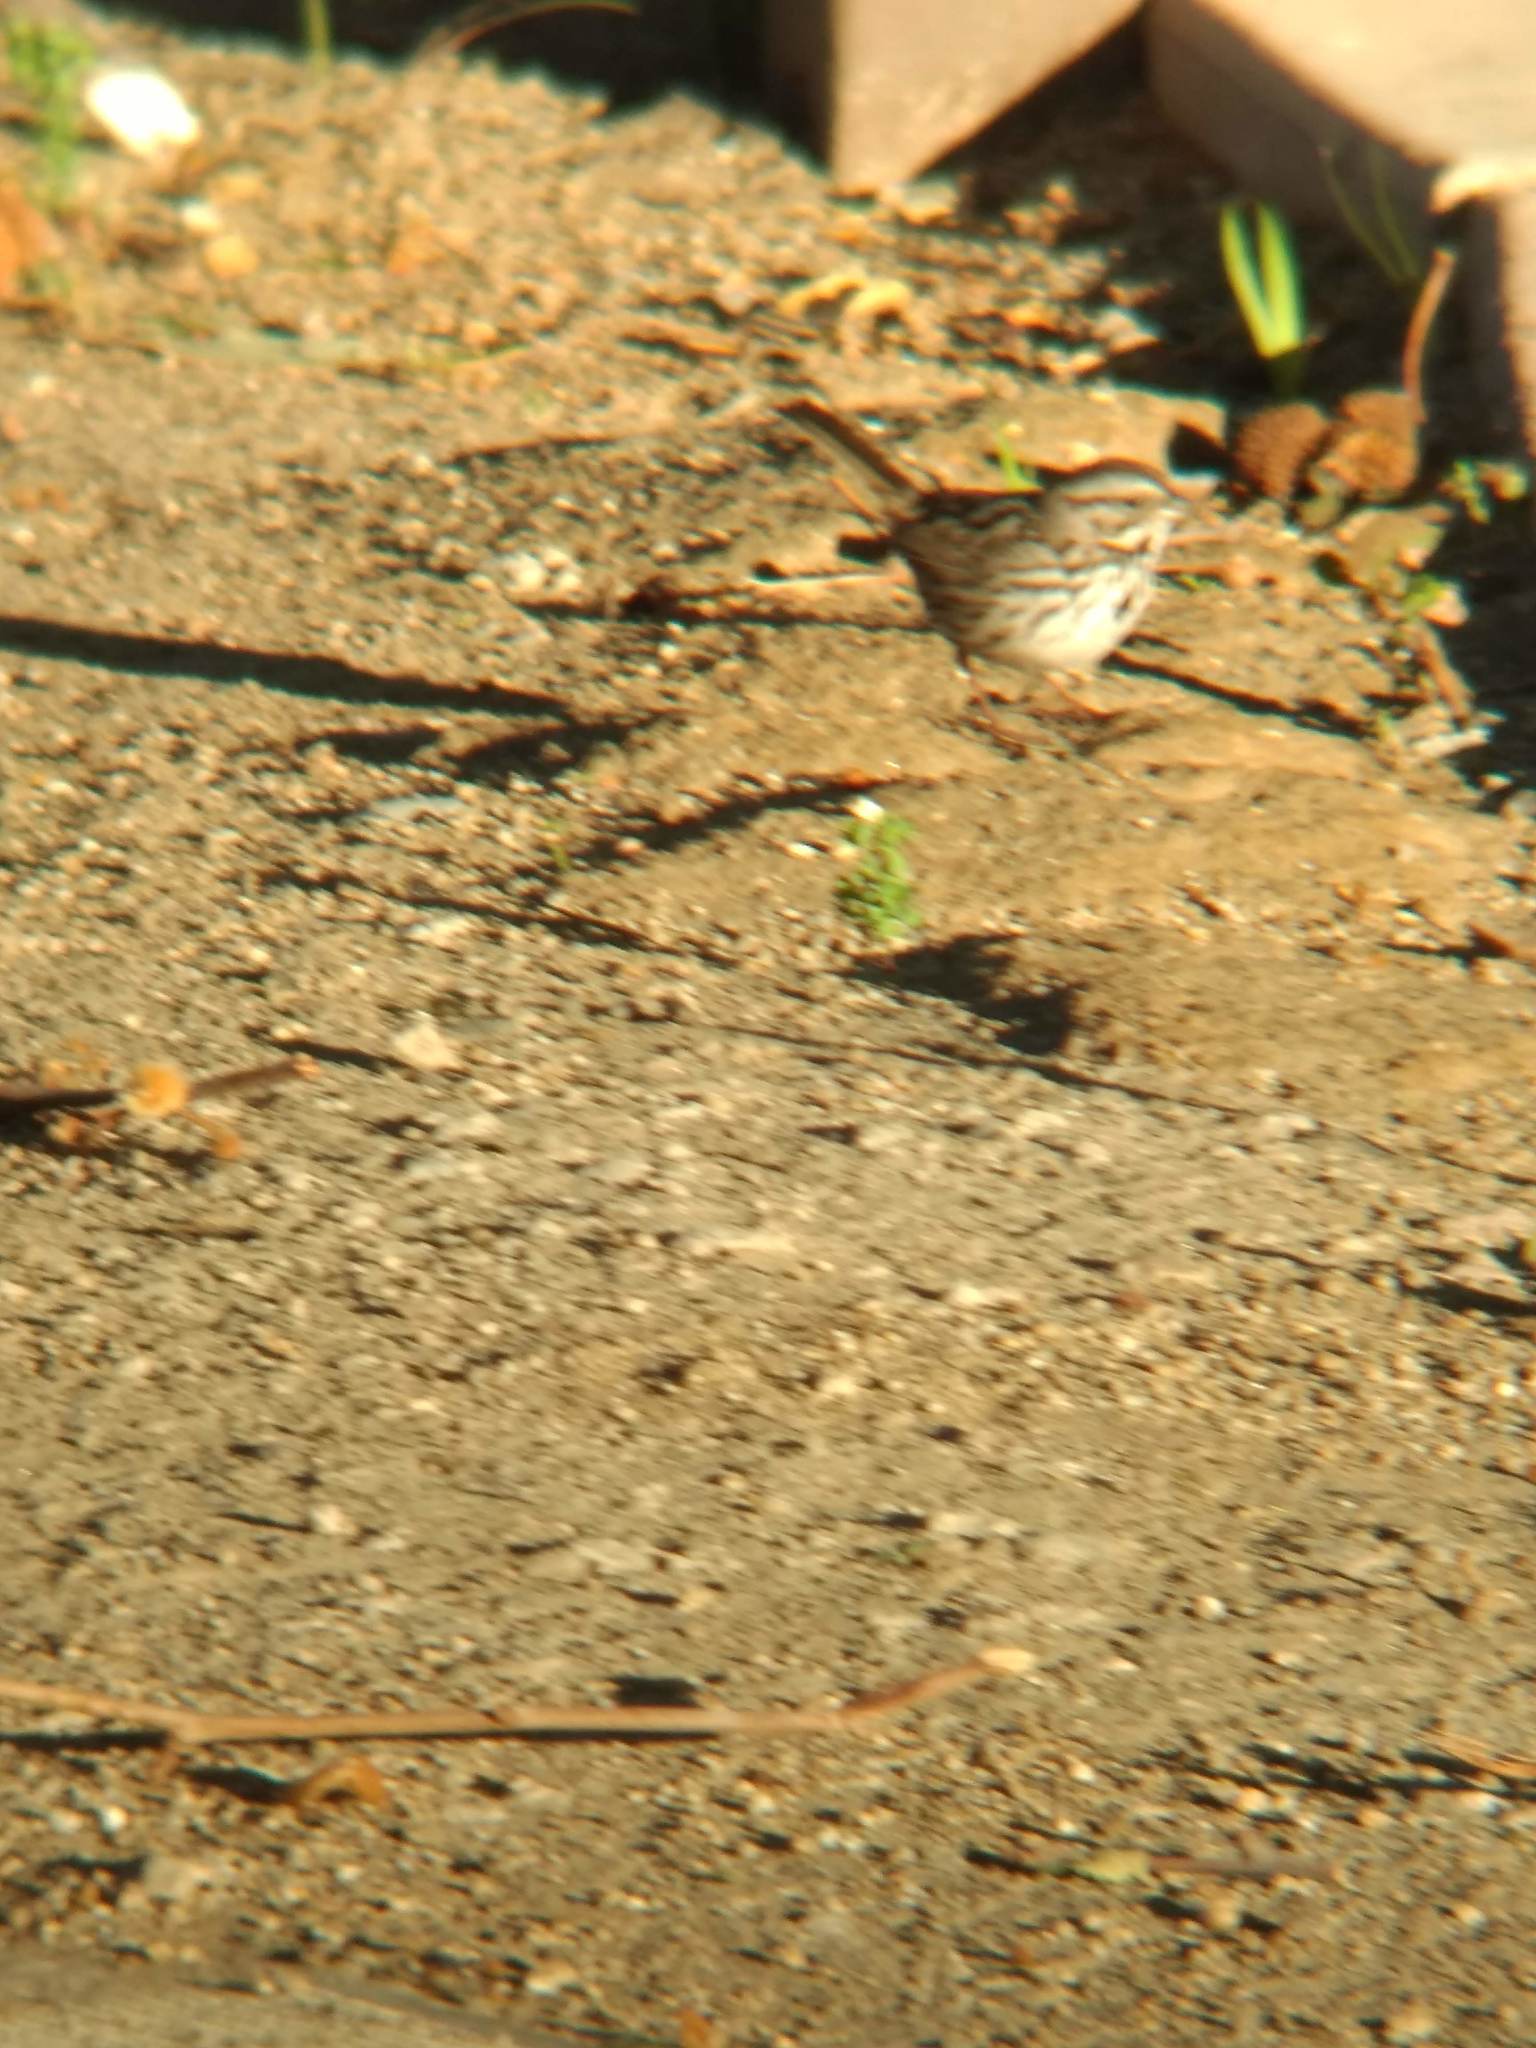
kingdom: Animalia
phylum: Chordata
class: Aves
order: Passeriformes
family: Passerellidae
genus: Melospiza
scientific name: Melospiza melodia
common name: Song sparrow
